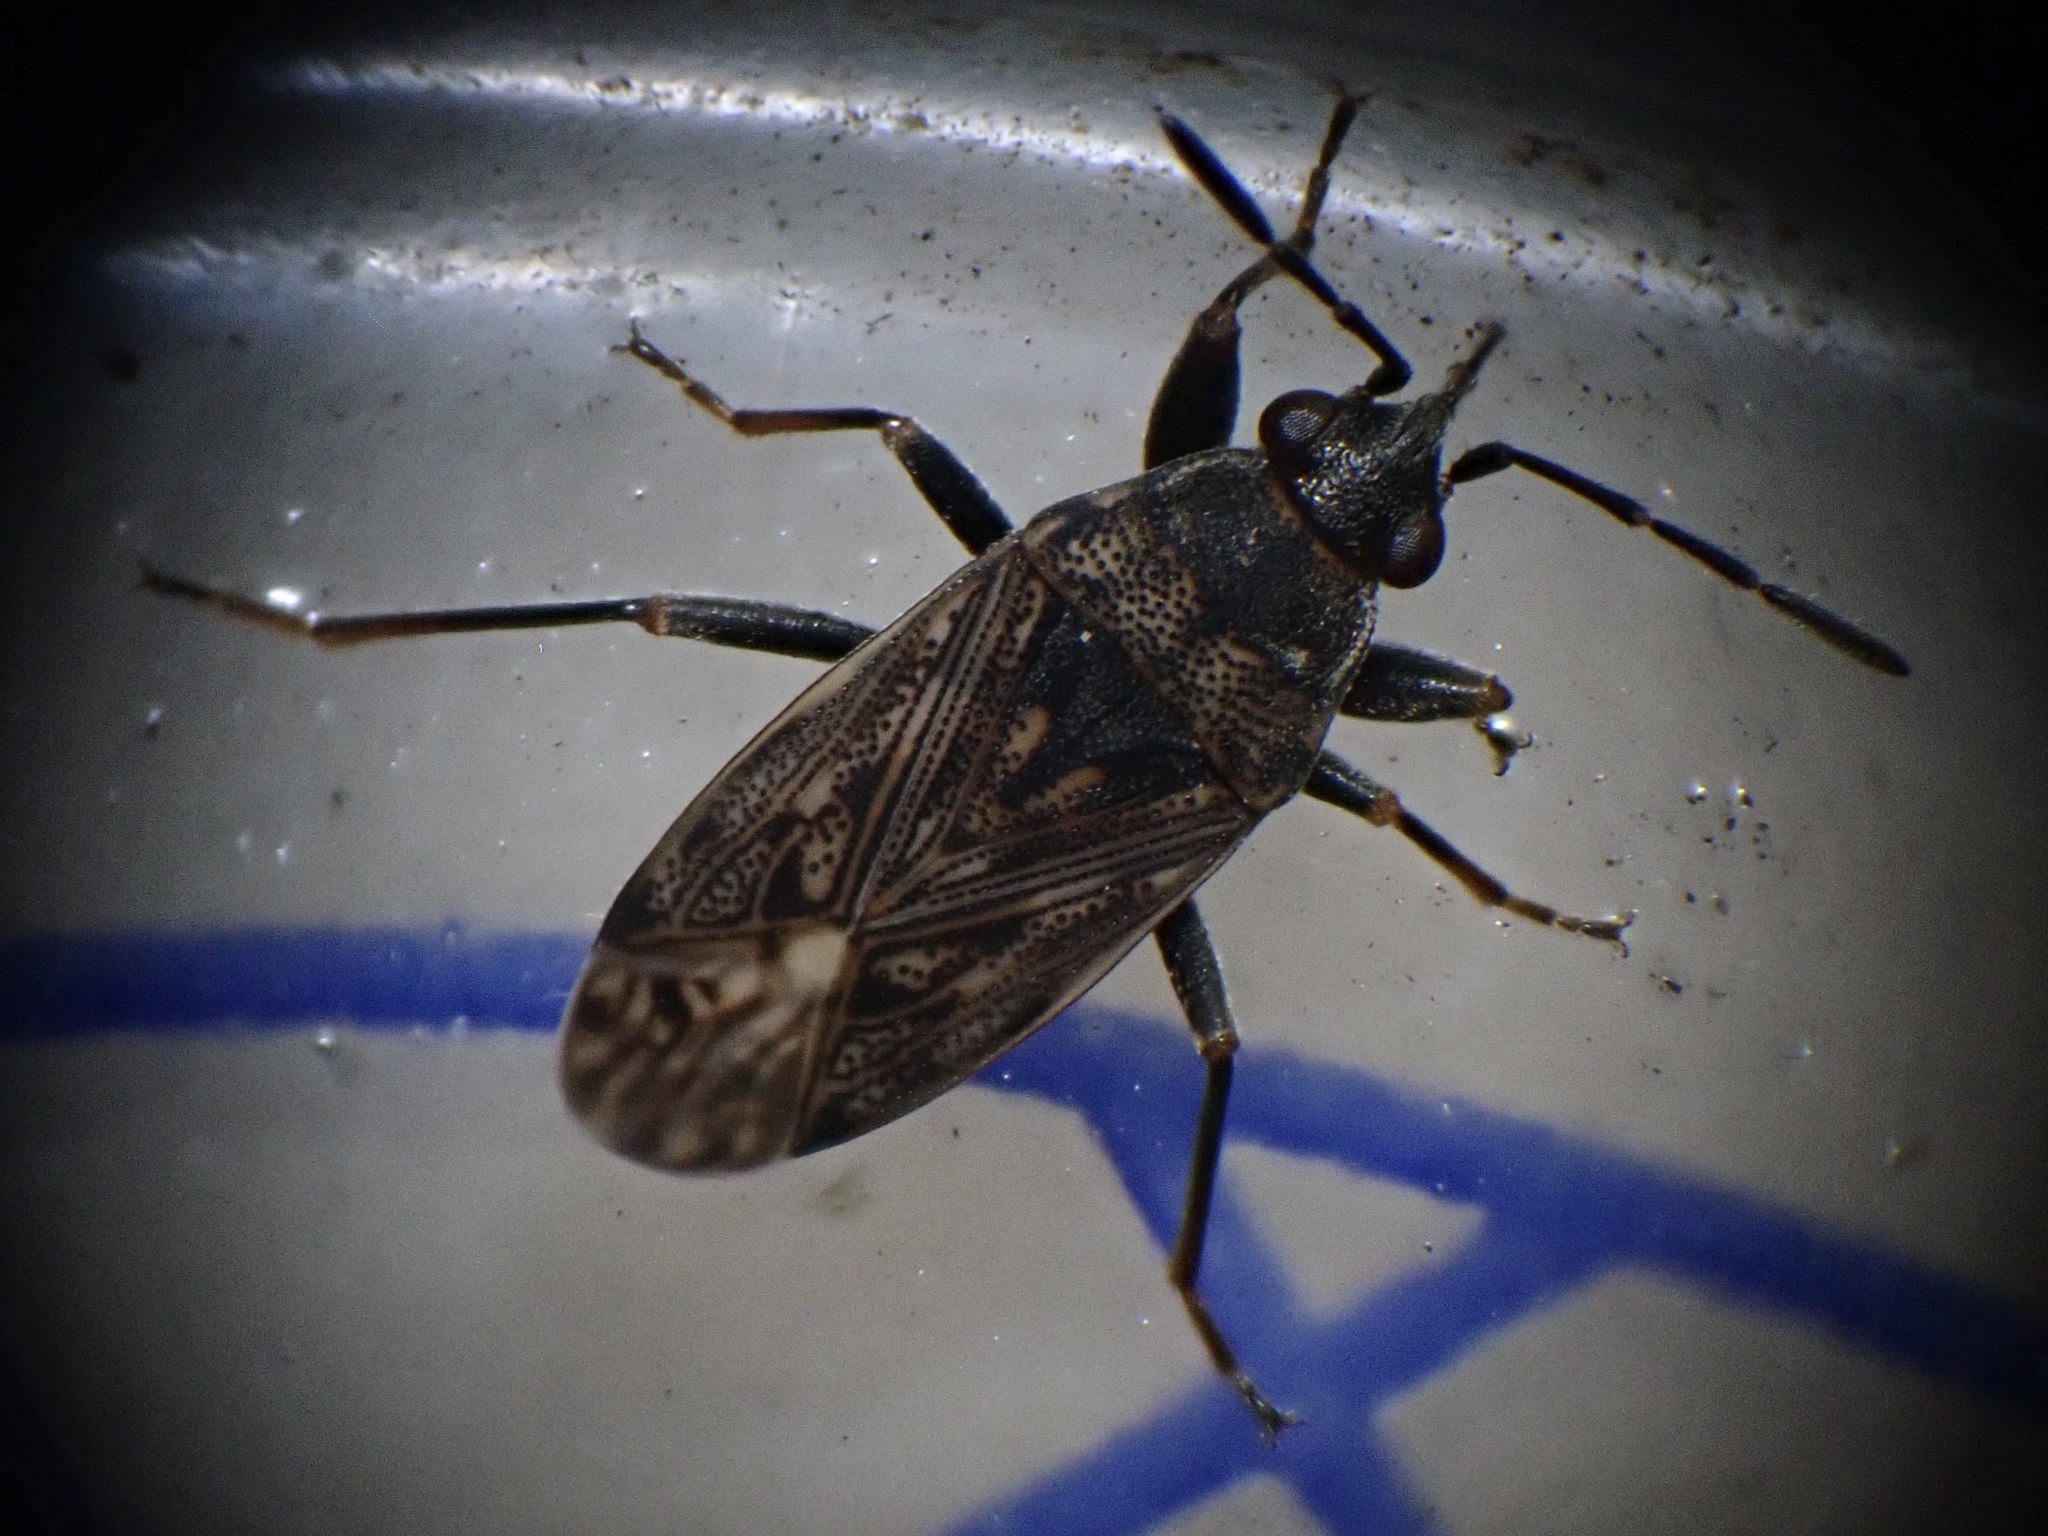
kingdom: Animalia
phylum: Arthropoda
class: Insecta
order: Hemiptera
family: Rhyparochromidae
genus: Peritrechus
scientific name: Peritrechus nubilus
